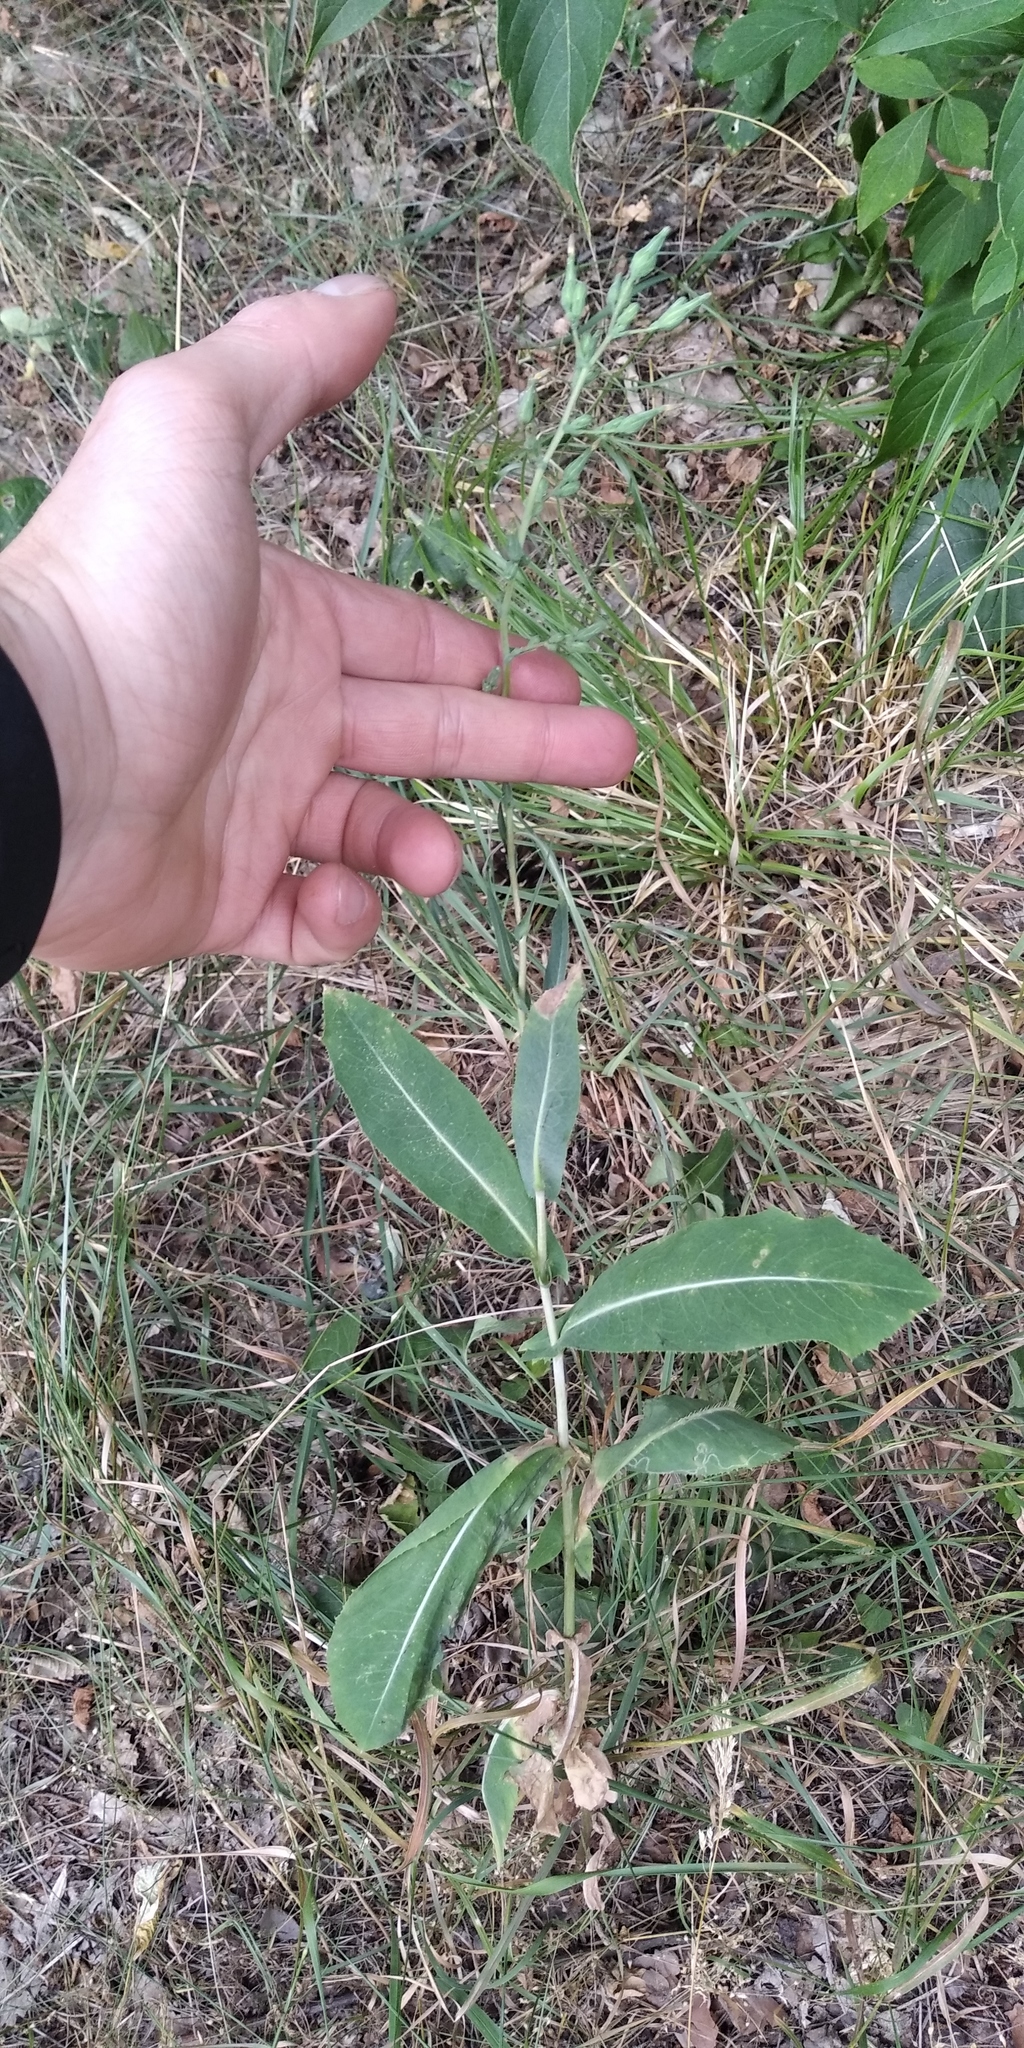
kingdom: Plantae
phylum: Tracheophyta
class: Magnoliopsida
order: Asterales
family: Asteraceae
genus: Lactuca
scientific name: Lactuca serriola
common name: Prickly lettuce
